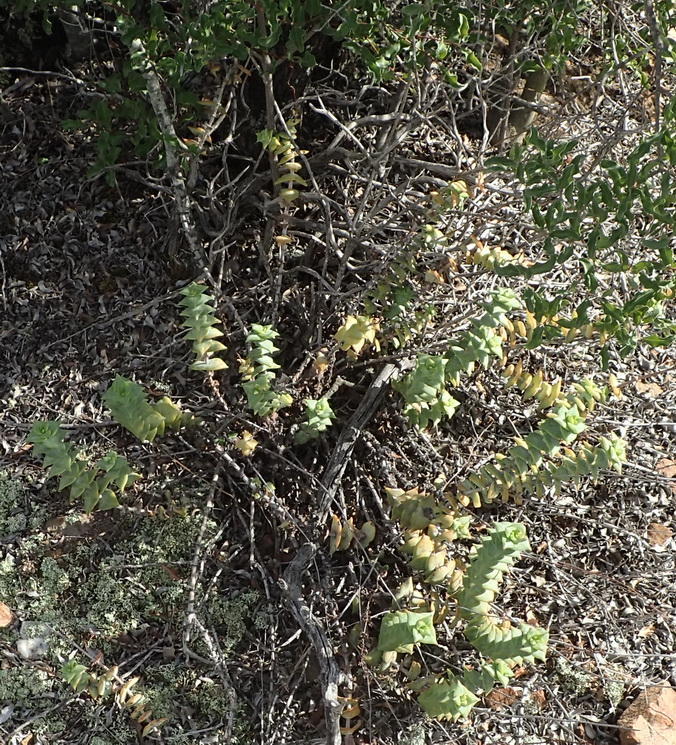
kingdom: Plantae
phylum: Tracheophyta
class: Magnoliopsida
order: Saxifragales
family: Crassulaceae
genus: Crassula
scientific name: Crassula perforata
